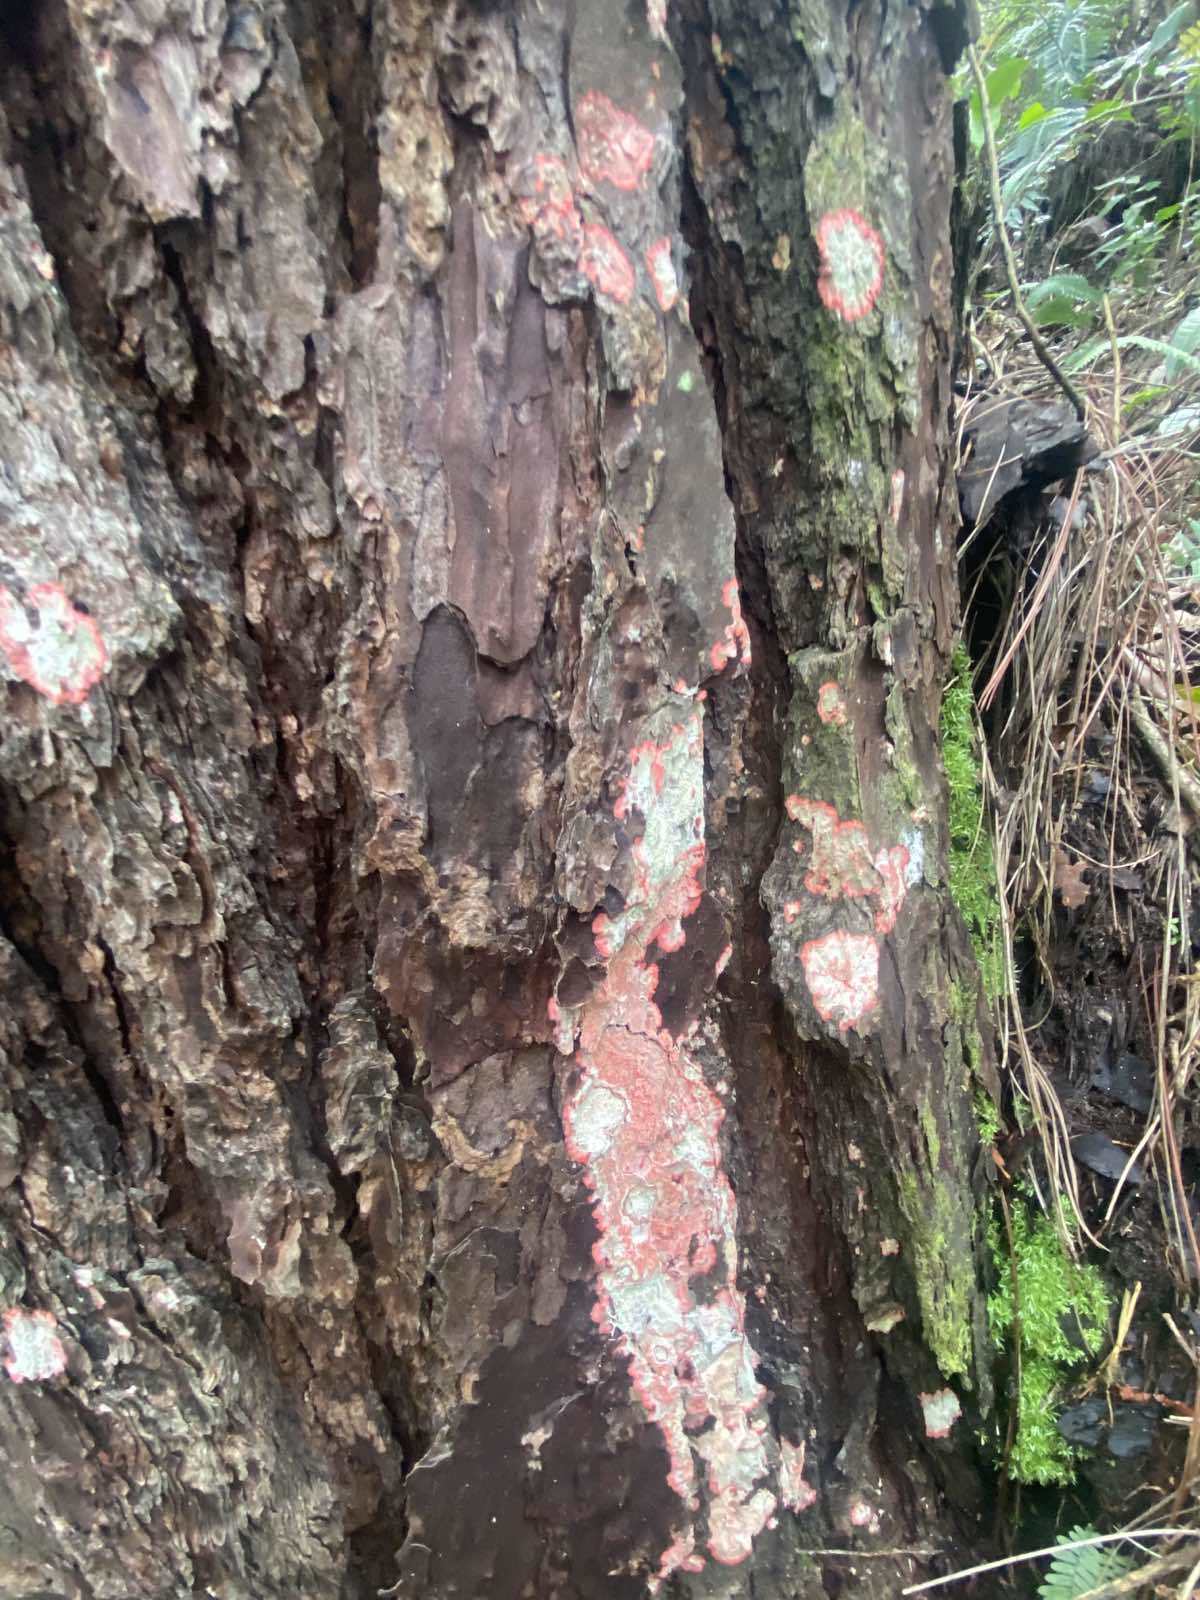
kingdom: Fungi
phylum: Ascomycota
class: Arthoniomycetes
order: Arthoniales
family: Arthoniaceae
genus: Herpothallon
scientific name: Herpothallon rubrocinctum
